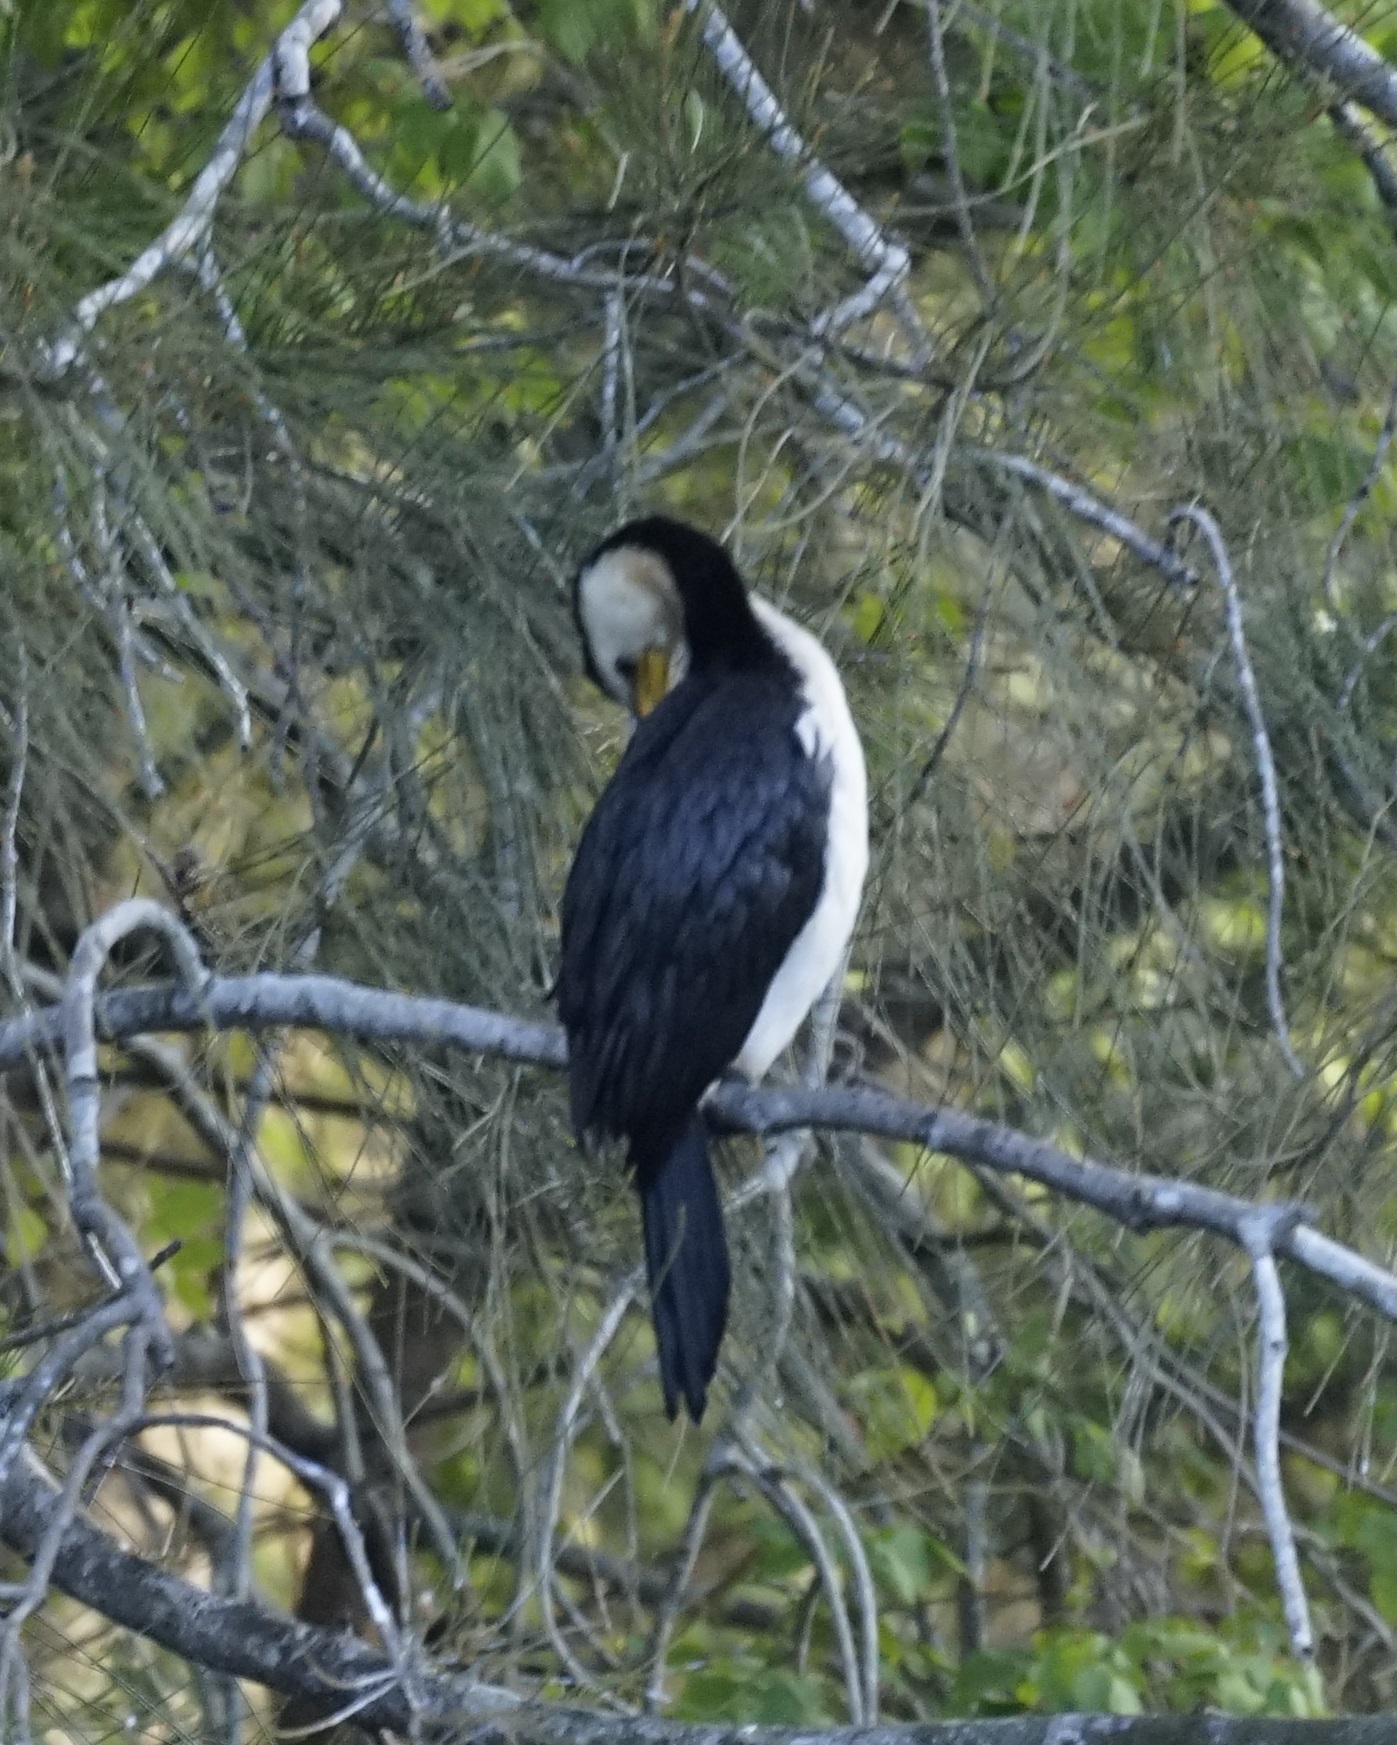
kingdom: Animalia
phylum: Chordata
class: Aves
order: Suliformes
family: Phalacrocoracidae
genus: Microcarbo
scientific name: Microcarbo melanoleucos
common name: Little pied cormorant
